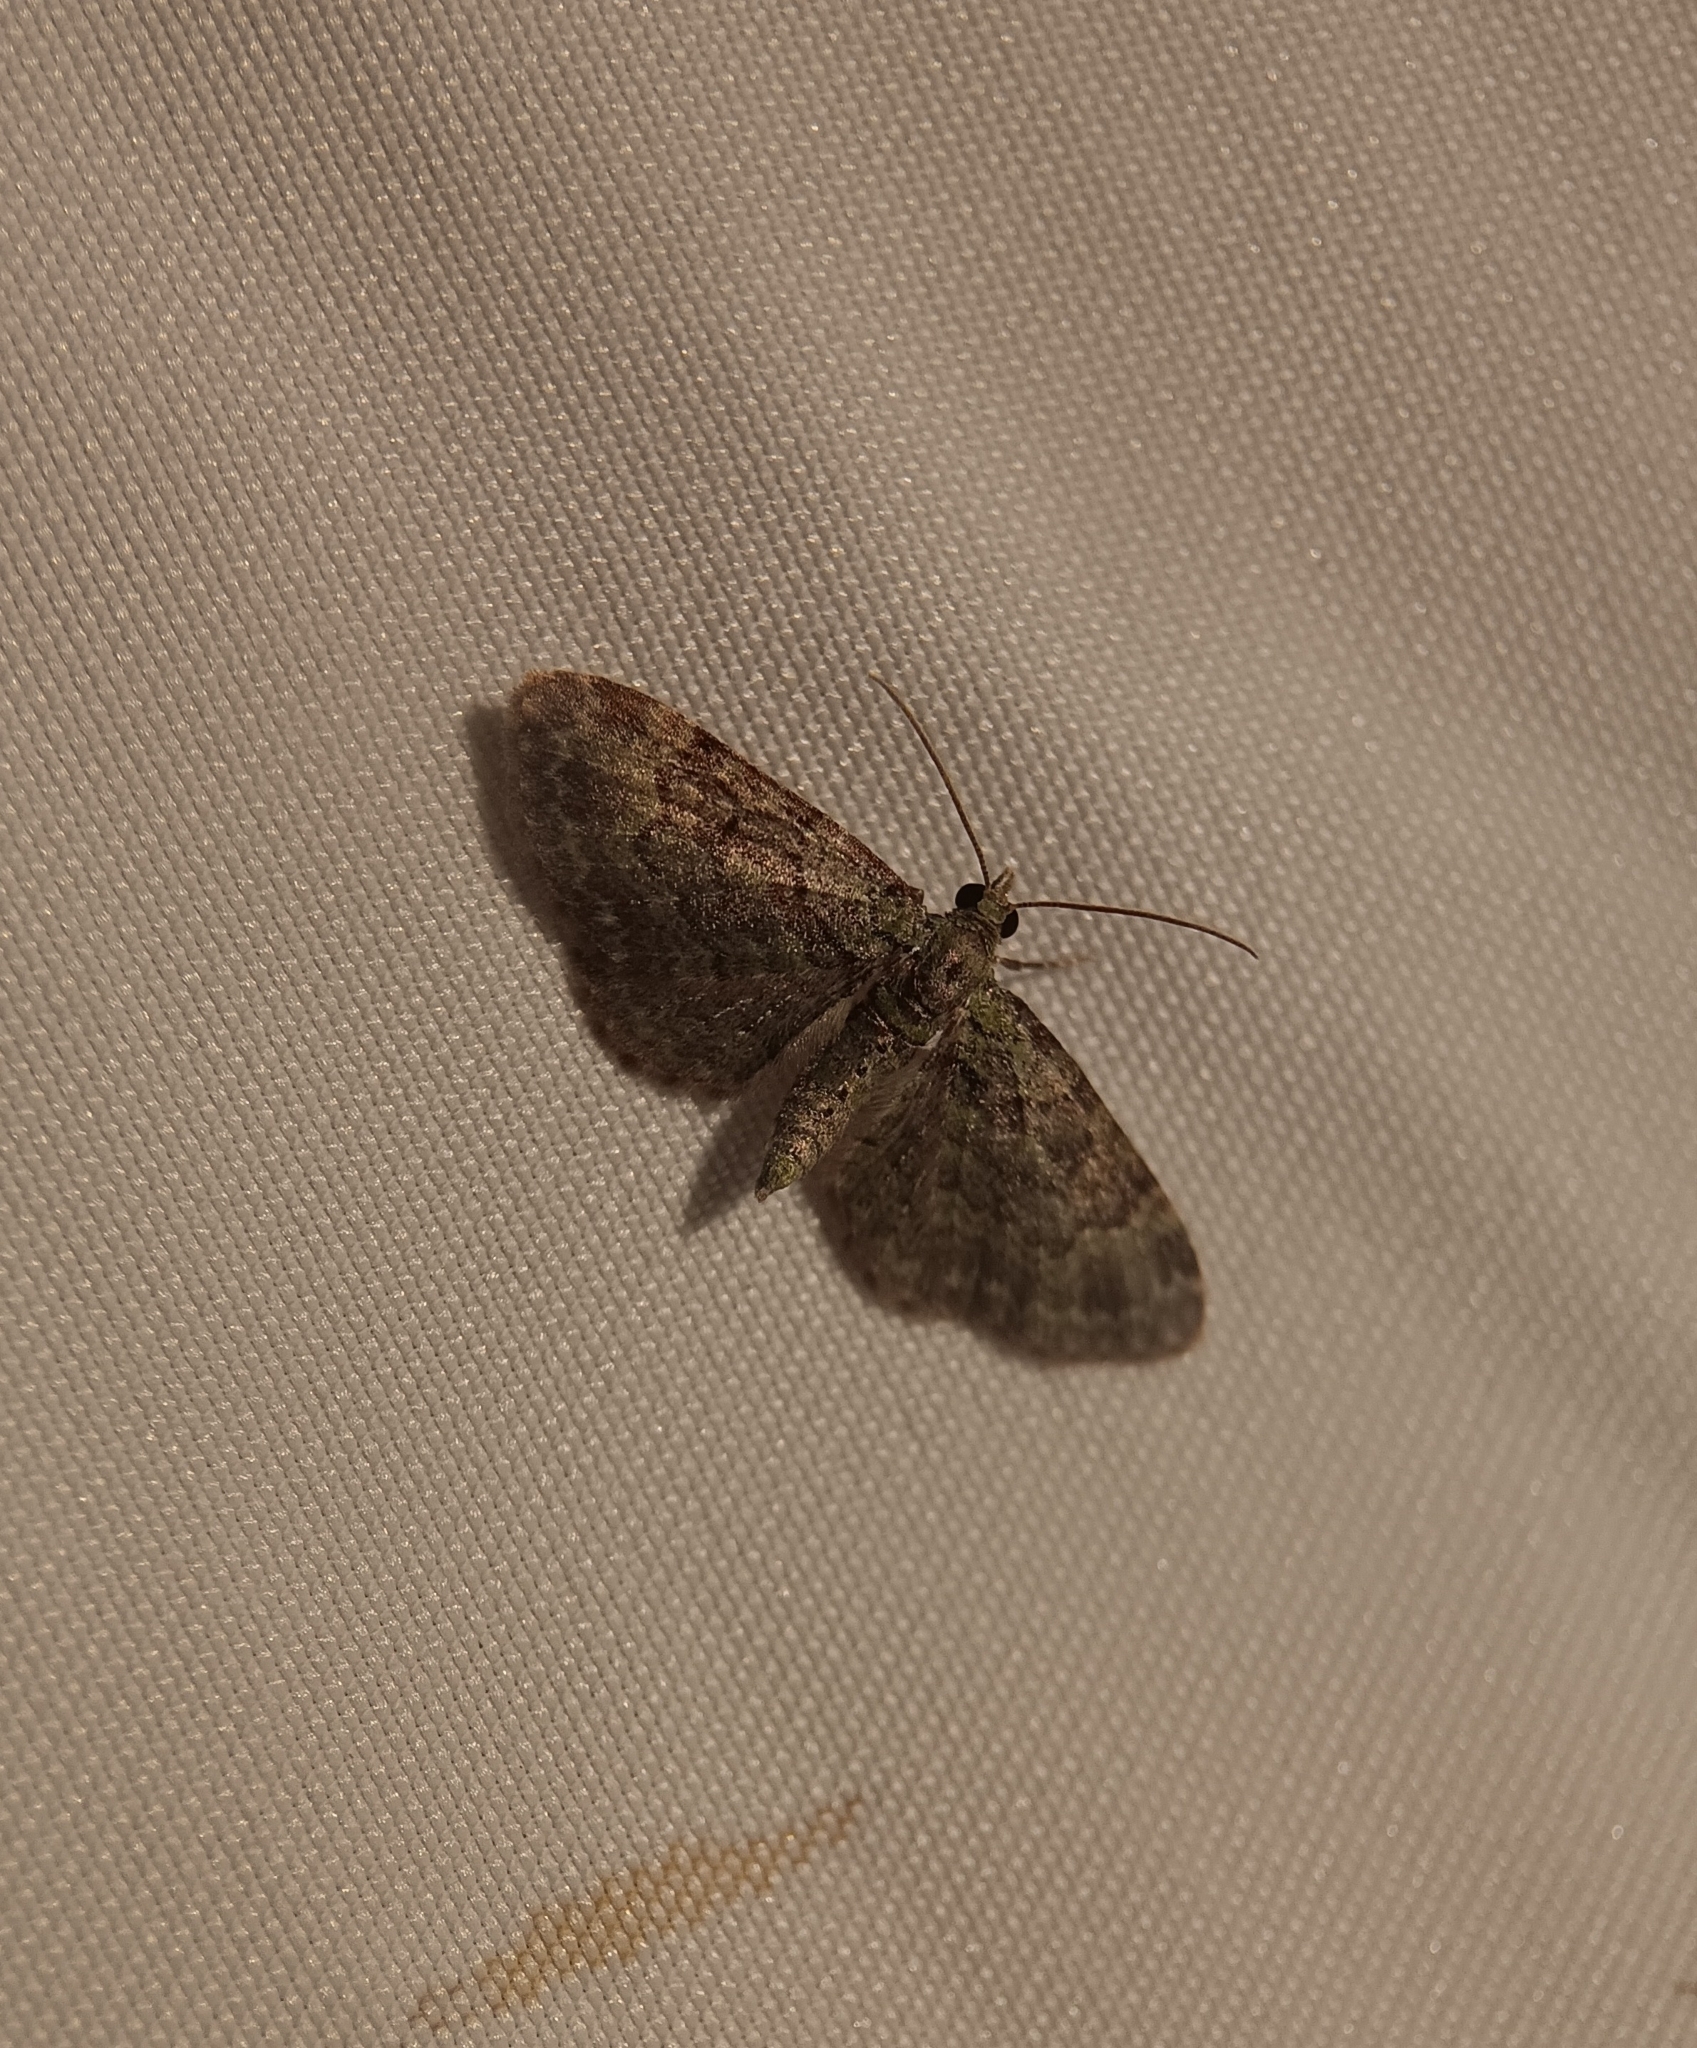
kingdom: Animalia
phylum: Arthropoda
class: Insecta
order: Lepidoptera
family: Geometridae
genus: Pasiphila
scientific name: Pasiphila rectangulata
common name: Green pug
